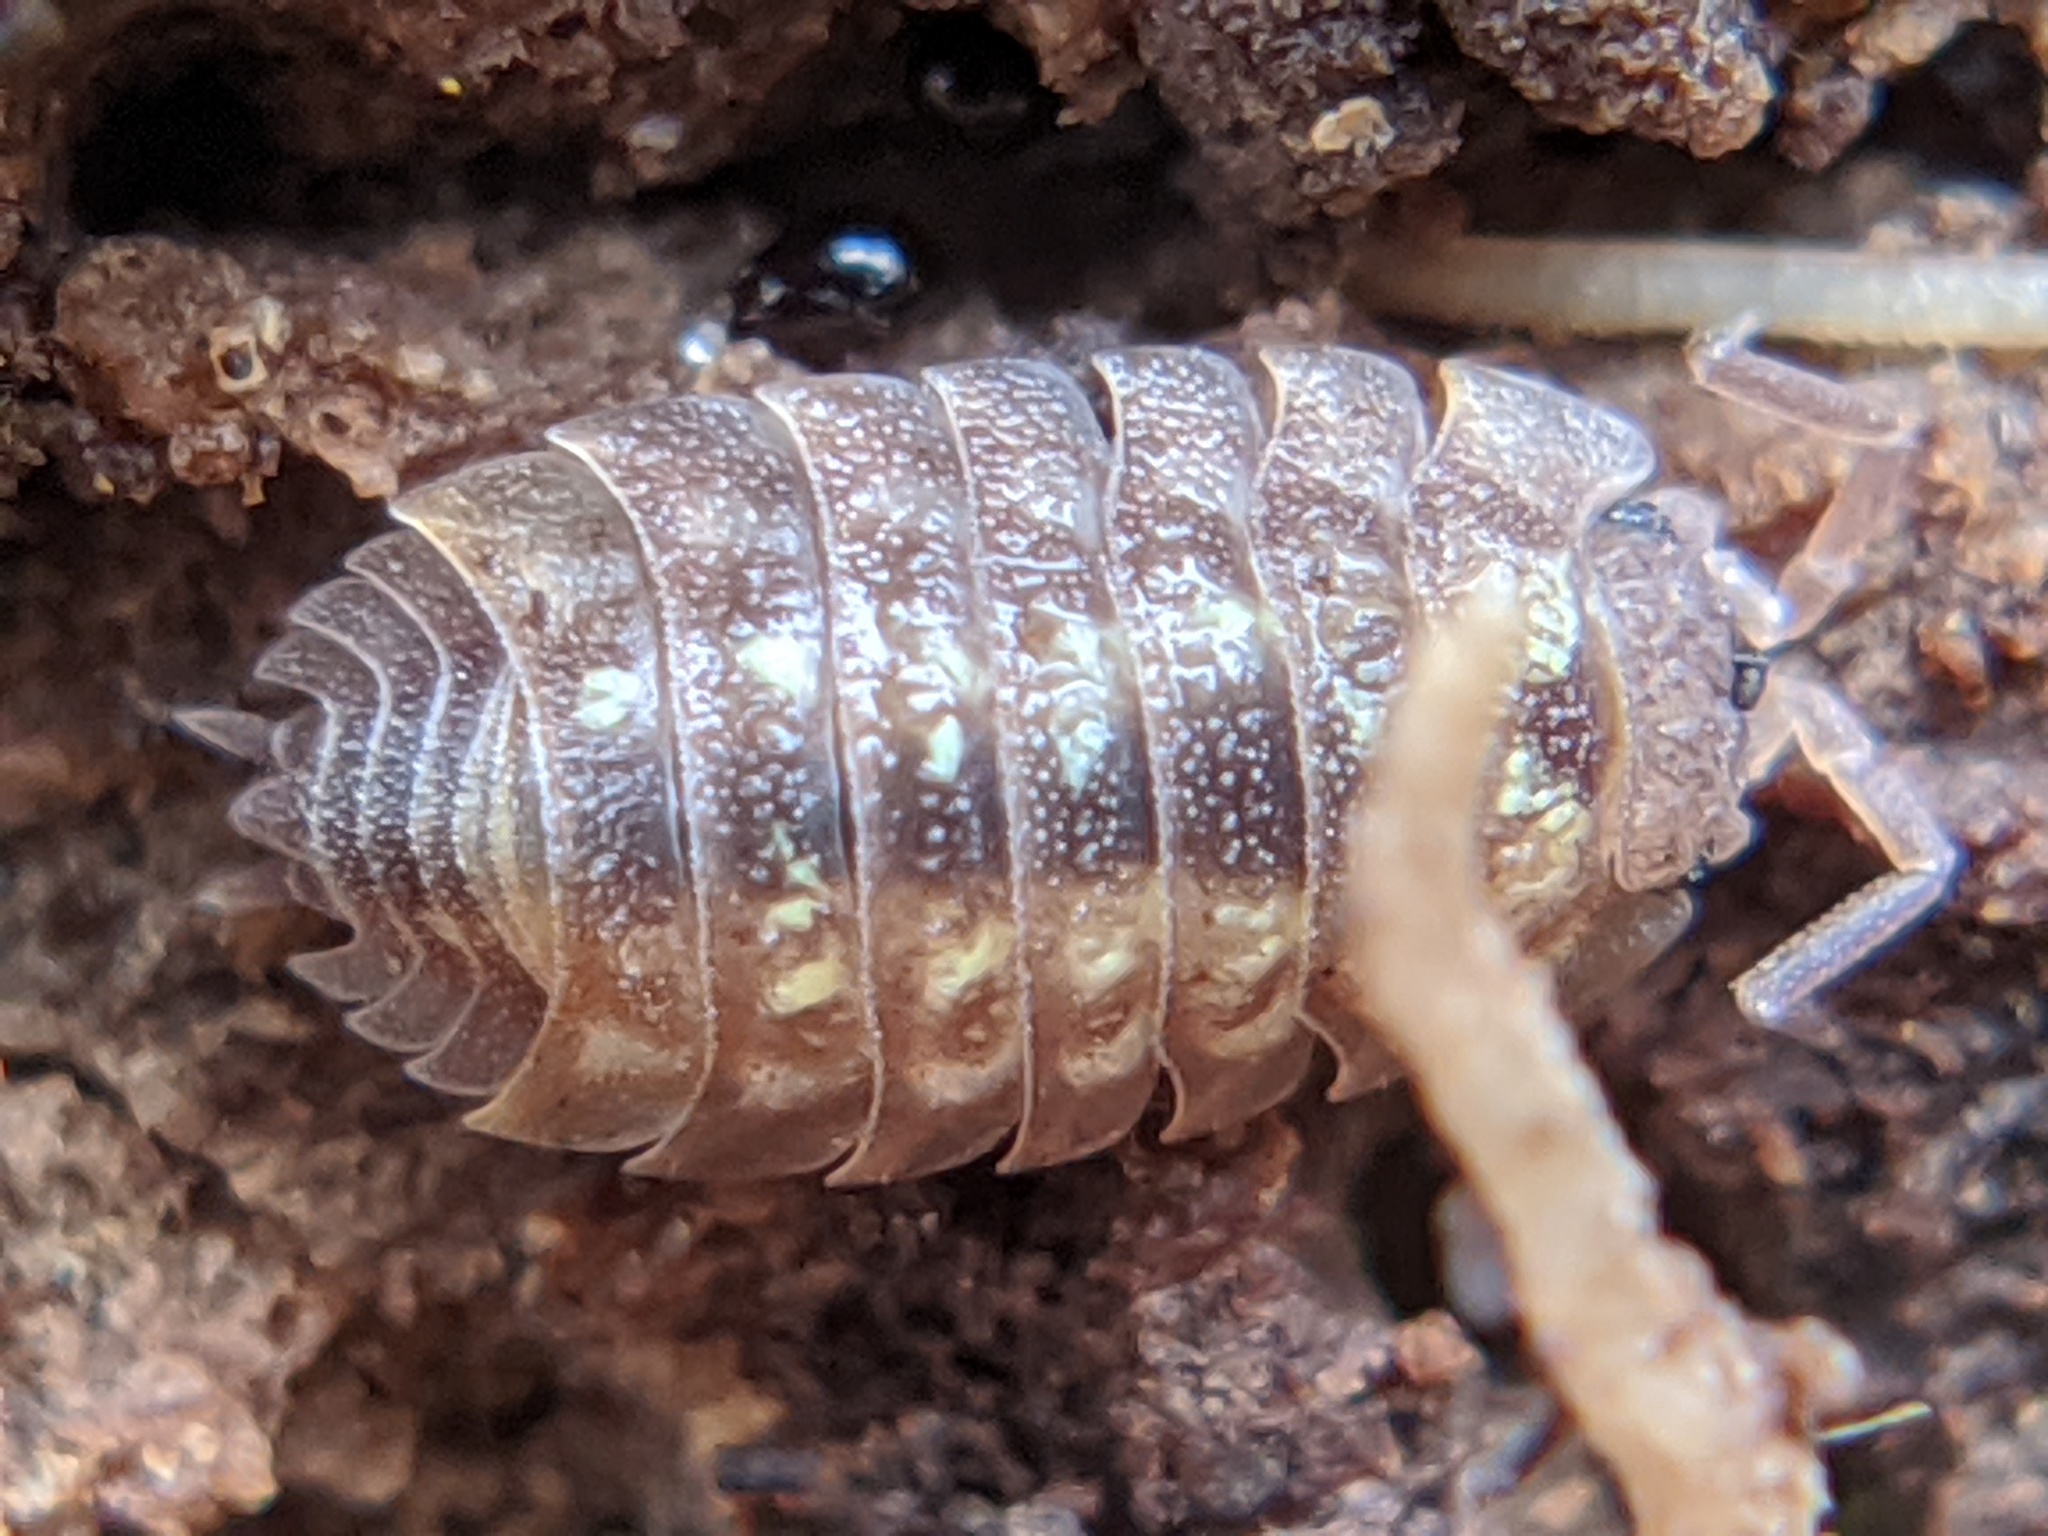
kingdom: Animalia
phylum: Arthropoda
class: Malacostraca
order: Isopoda
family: Oniscidae
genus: Oniscus
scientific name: Oniscus asellus
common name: Common shiny woodlouse
